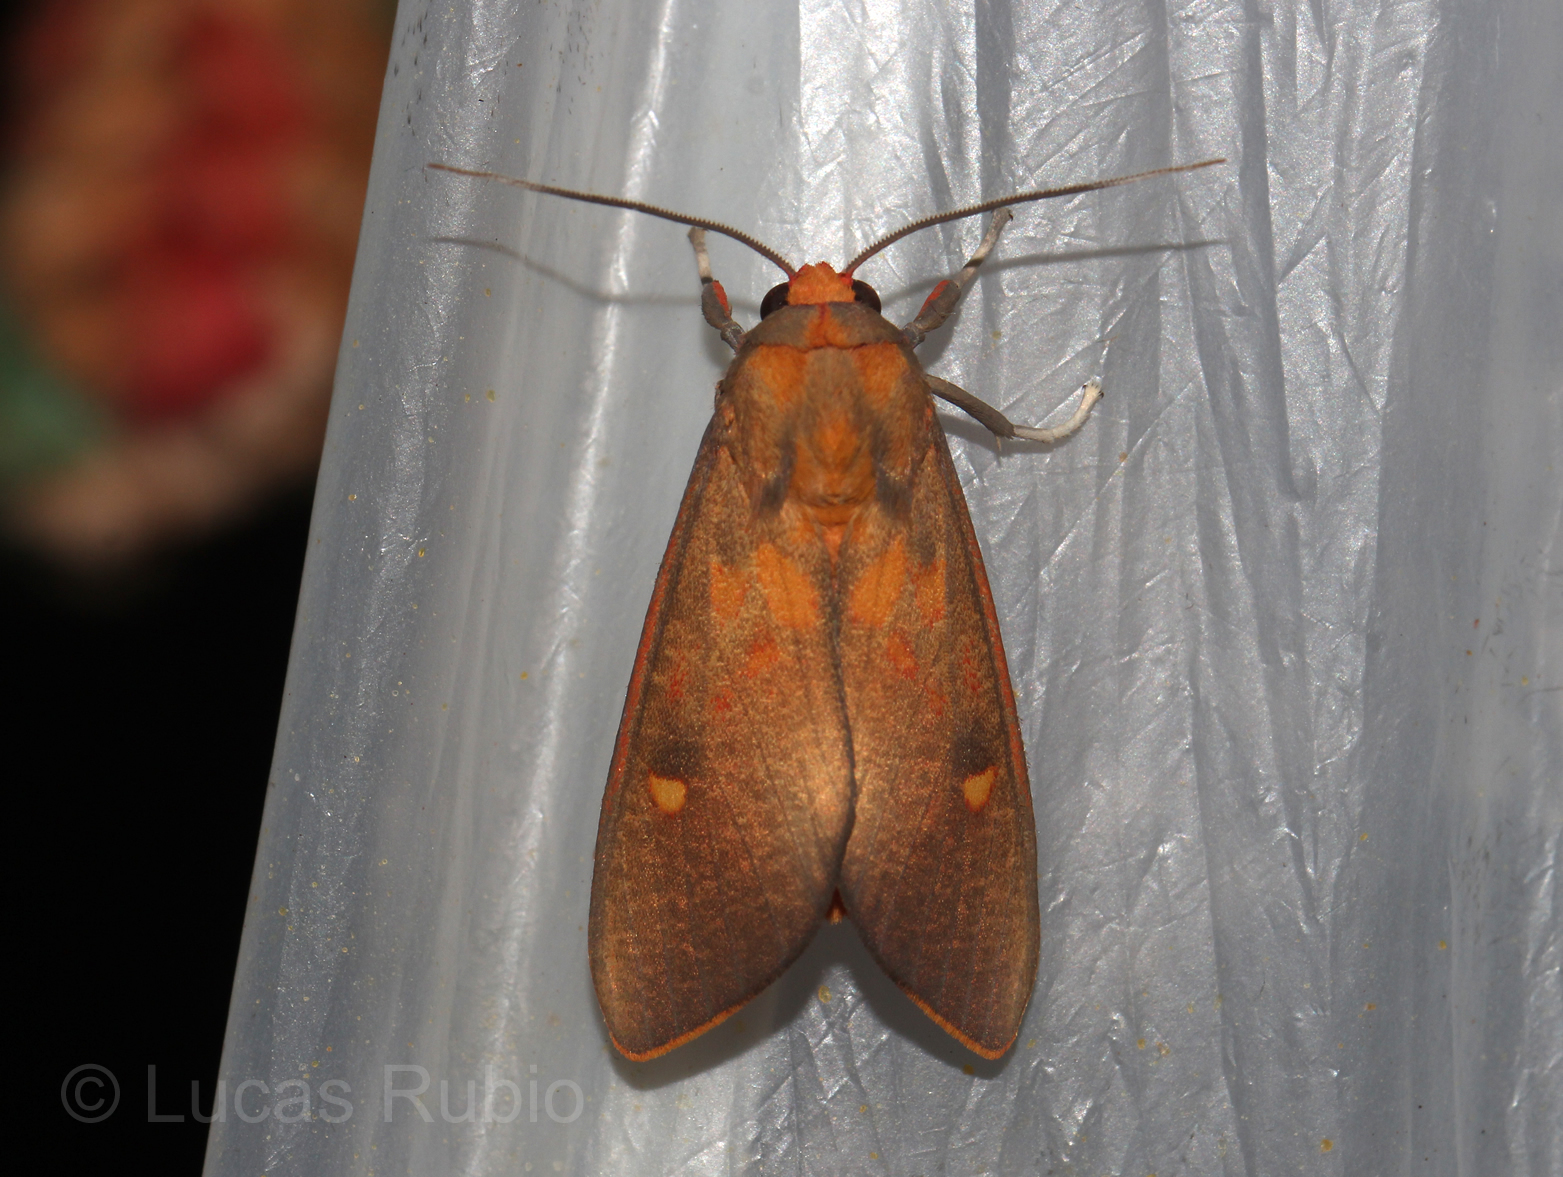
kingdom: Animalia
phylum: Arthropoda
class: Insecta
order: Lepidoptera
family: Erebidae
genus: Melese
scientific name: Melese paranensis
